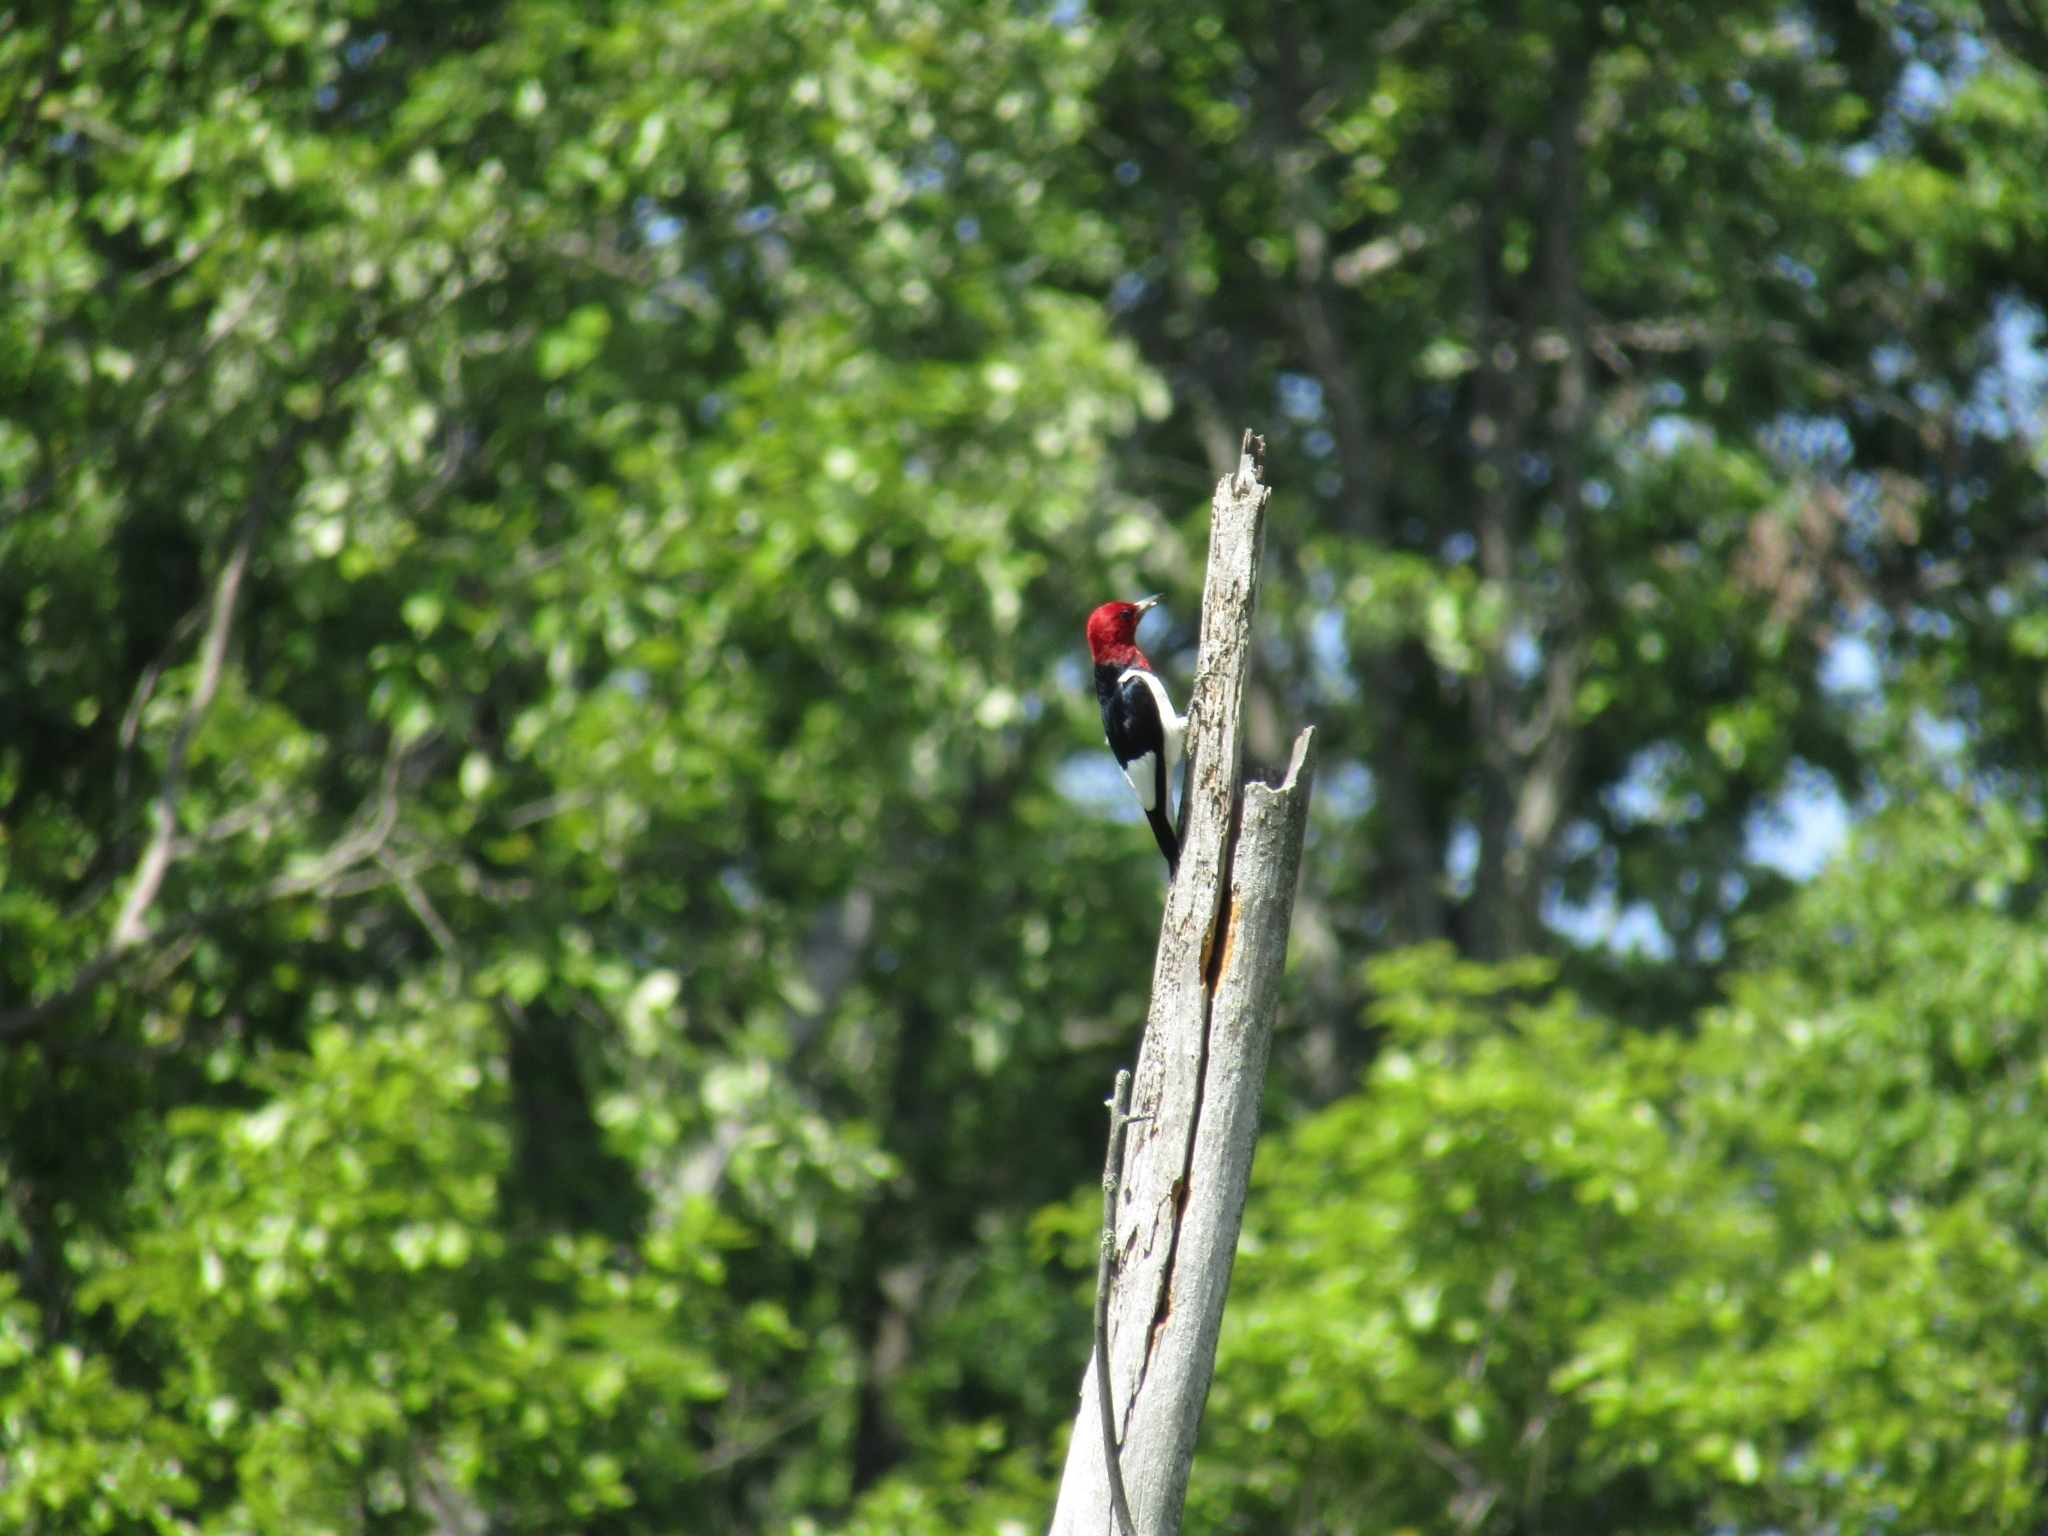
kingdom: Animalia
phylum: Chordata
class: Aves
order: Piciformes
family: Picidae
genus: Melanerpes
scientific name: Melanerpes erythrocephalus
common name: Red-headed woodpecker
